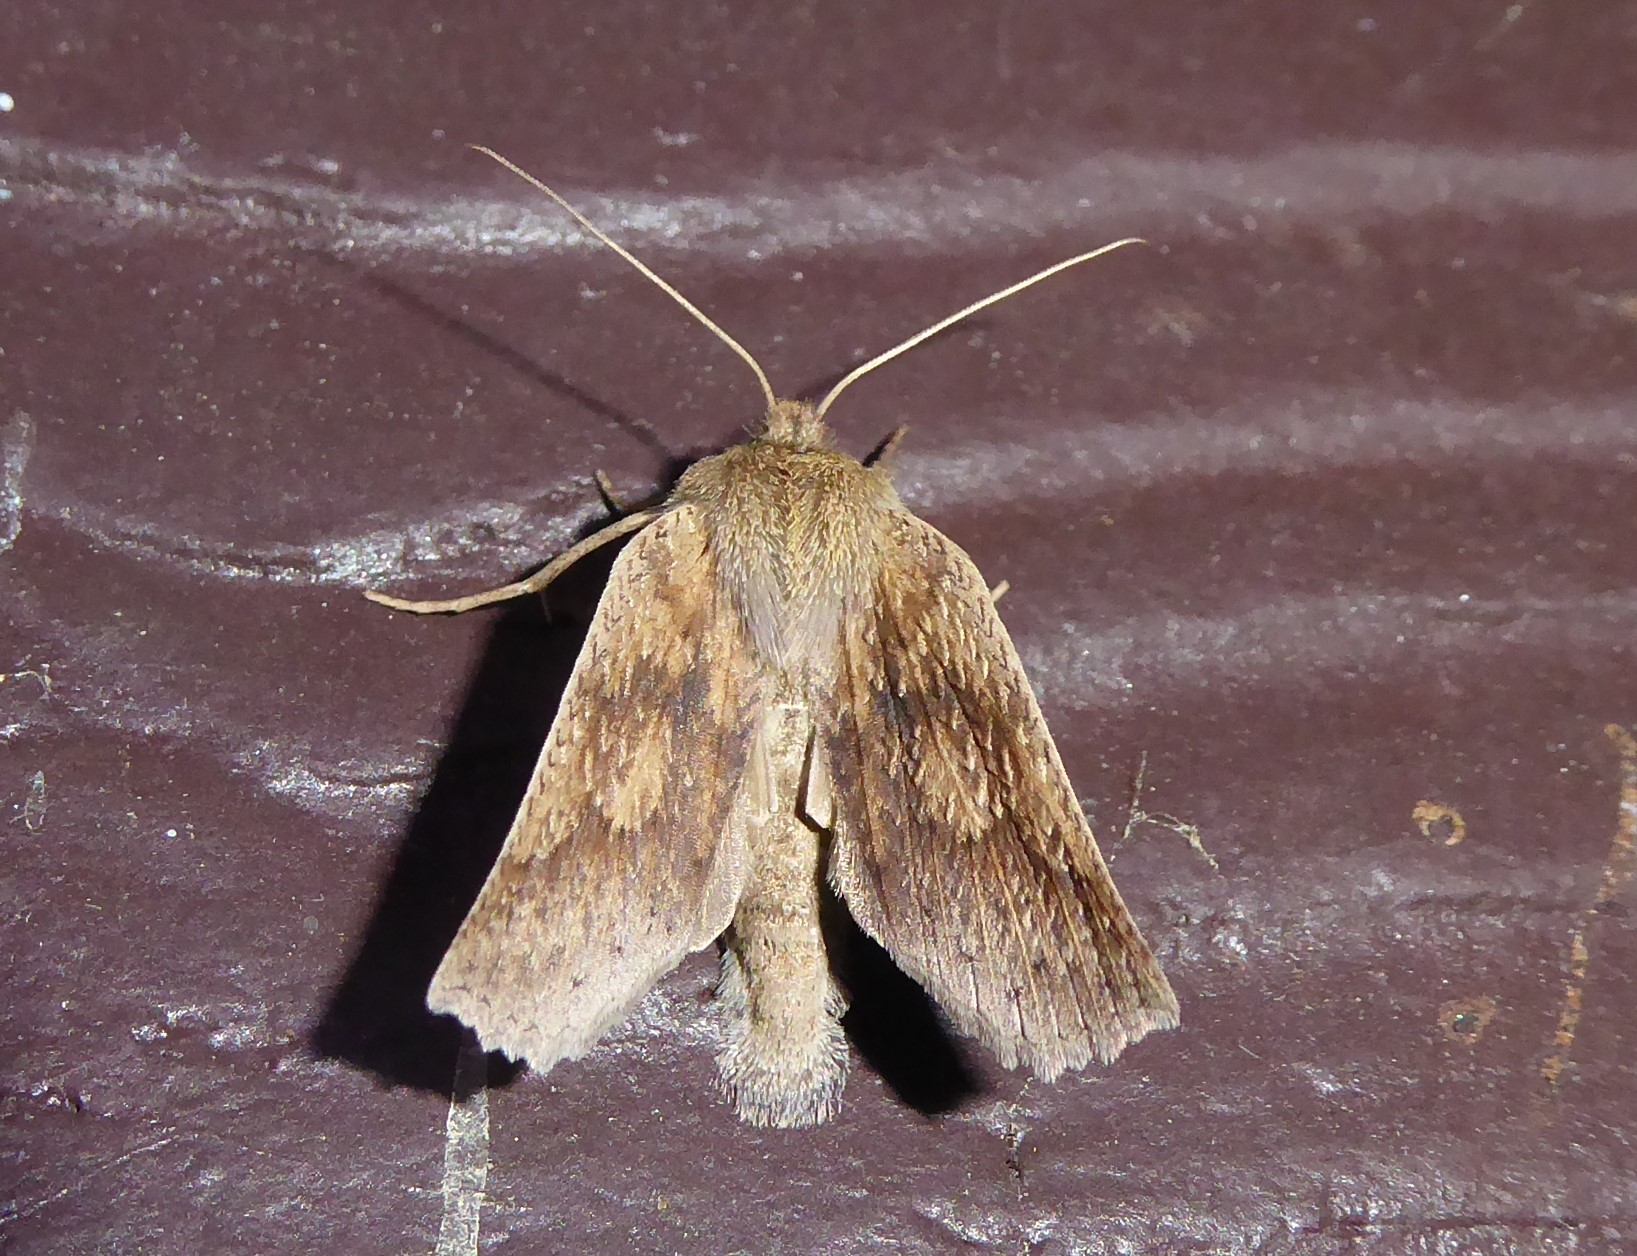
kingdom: Animalia
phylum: Arthropoda
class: Insecta
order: Lepidoptera
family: Geometridae
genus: Declana
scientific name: Declana leptomera
